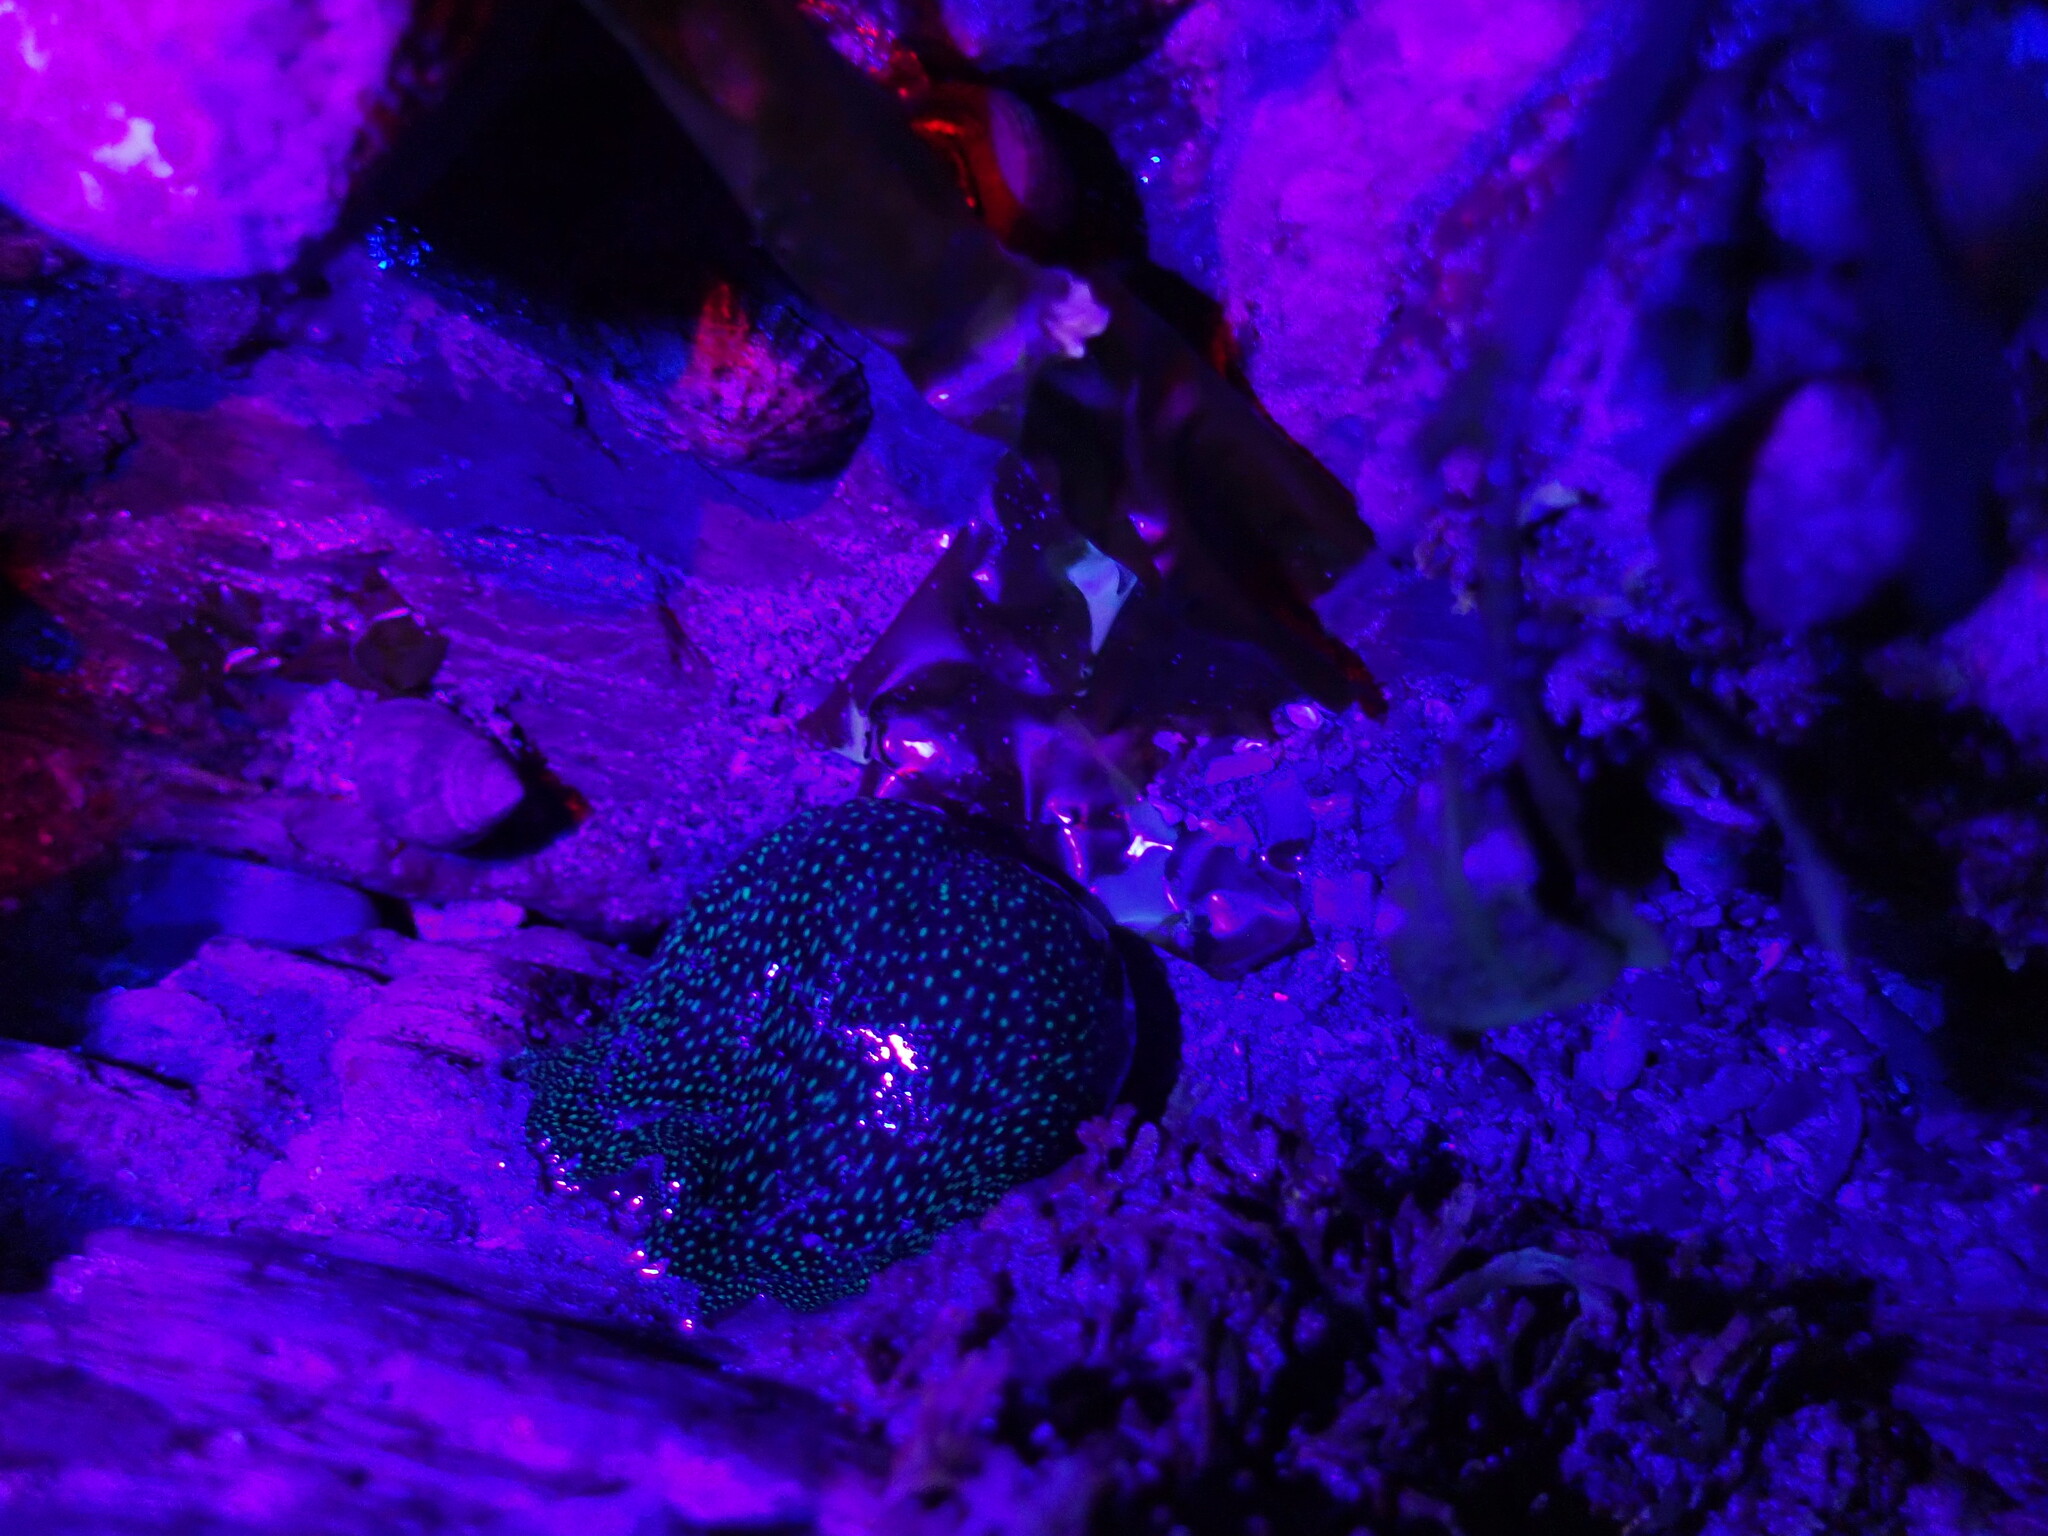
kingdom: Animalia
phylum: Cnidaria
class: Anthozoa
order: Actiniaria
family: Actiniidae
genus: Actinia
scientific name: Actinia fragacea
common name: Strawberry anemone
